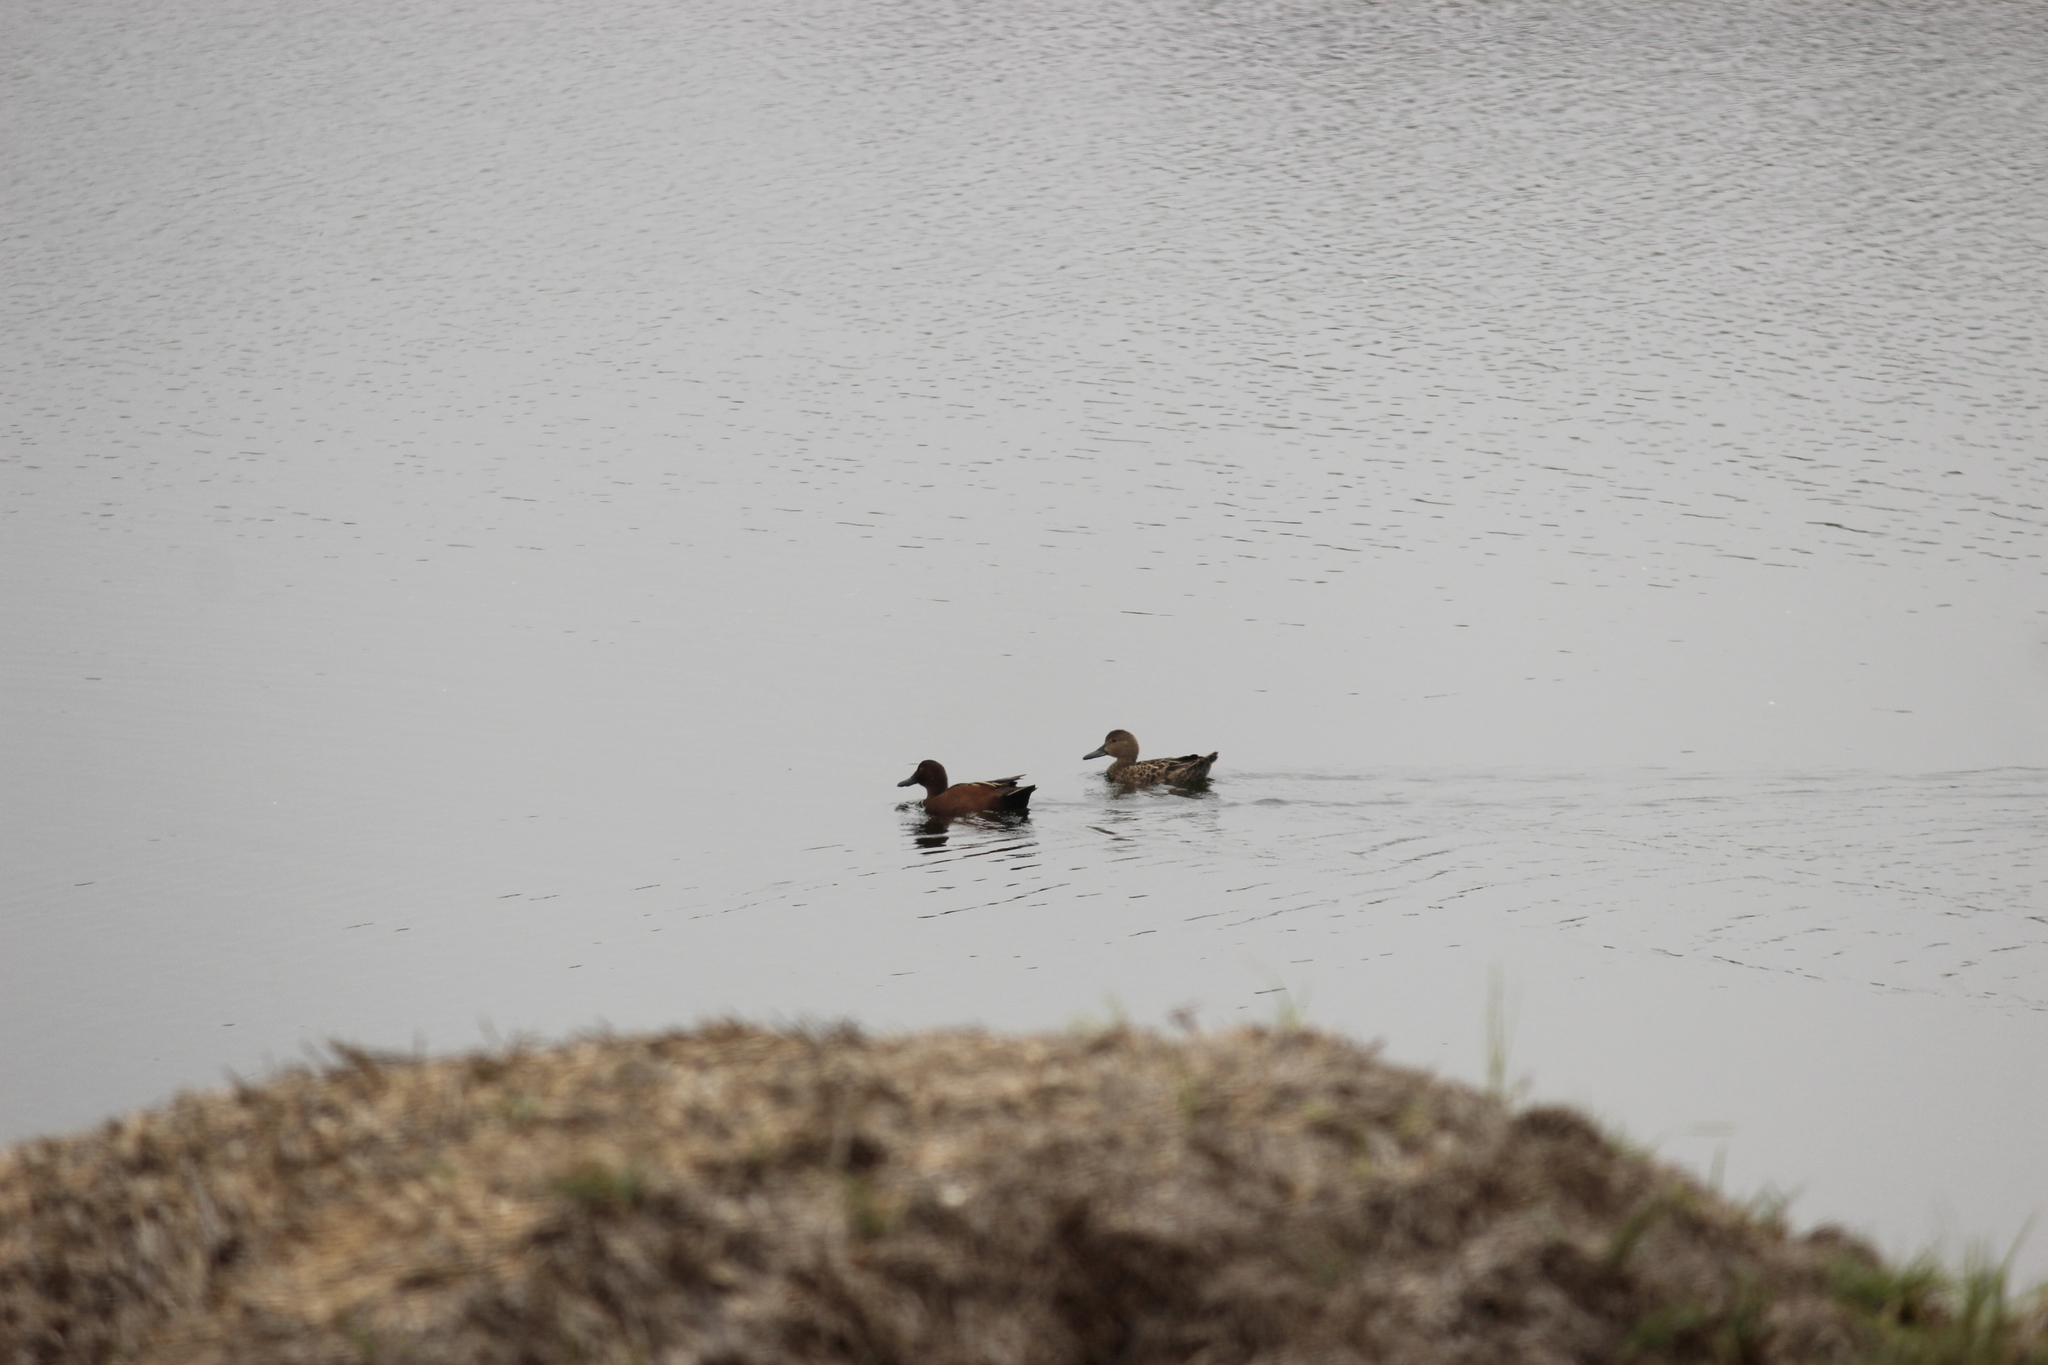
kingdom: Animalia
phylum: Chordata
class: Aves
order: Anseriformes
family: Anatidae
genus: Spatula
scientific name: Spatula cyanoptera
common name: Cinnamon teal
